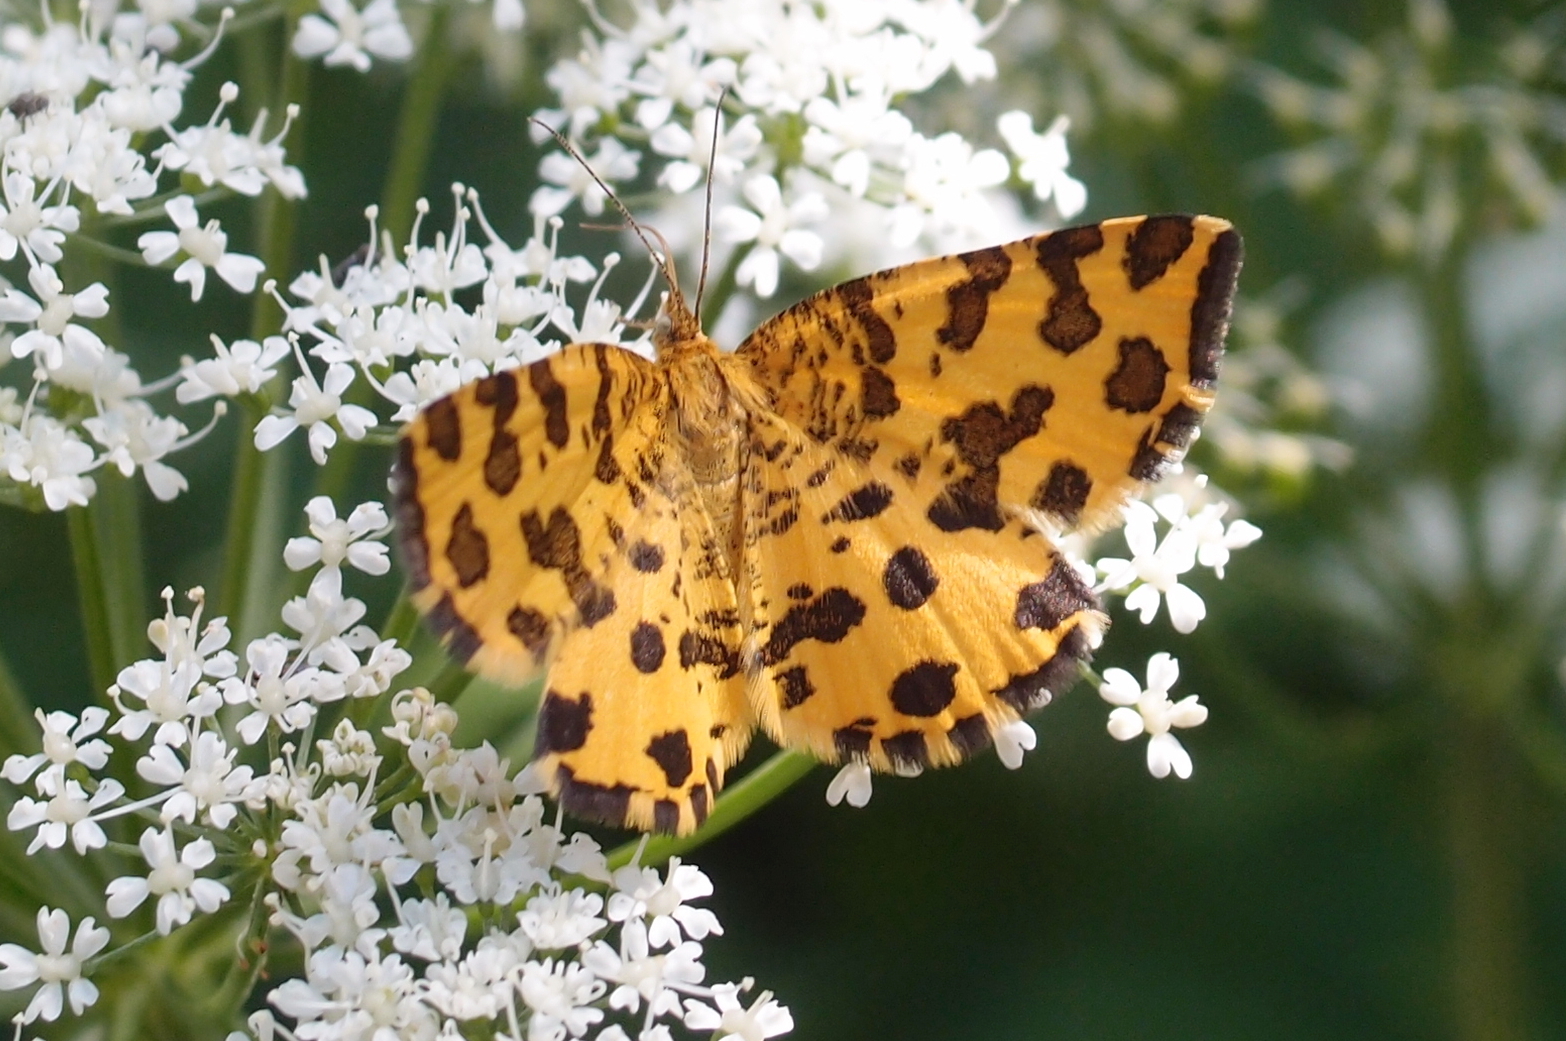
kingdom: Animalia
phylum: Arthropoda
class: Insecta
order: Lepidoptera
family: Geometridae
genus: Pseudopanthera
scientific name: Pseudopanthera macularia
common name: Speckled yellow
